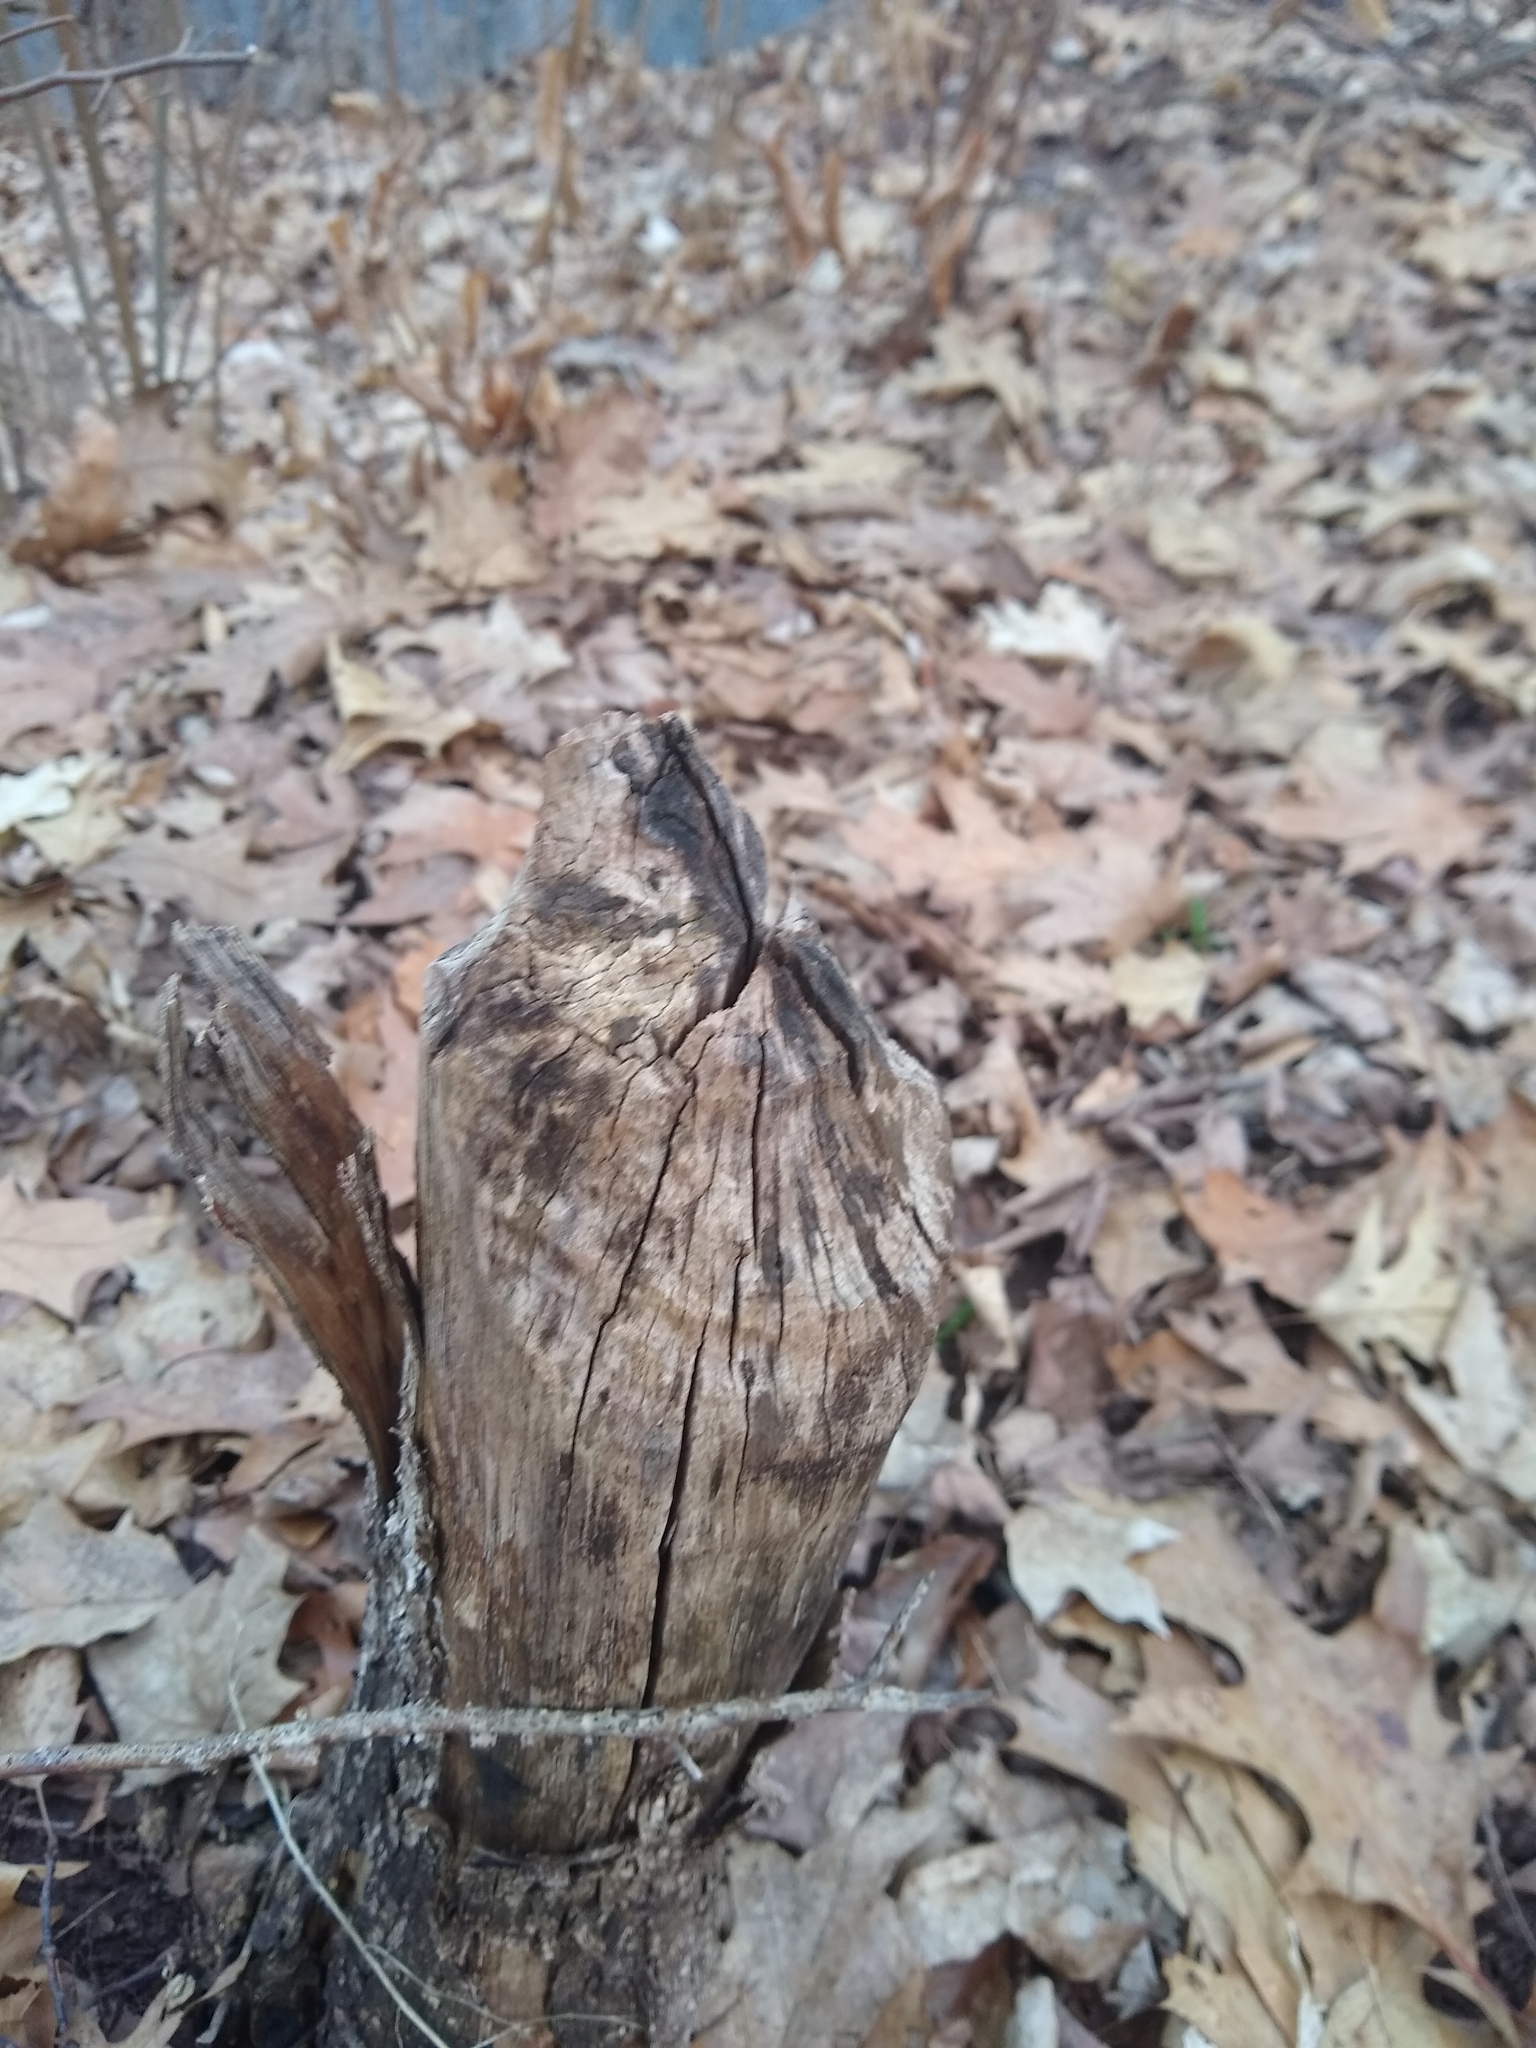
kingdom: Animalia
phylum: Chordata
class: Mammalia
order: Rodentia
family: Castoridae
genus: Castor
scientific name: Castor canadensis
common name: American beaver
